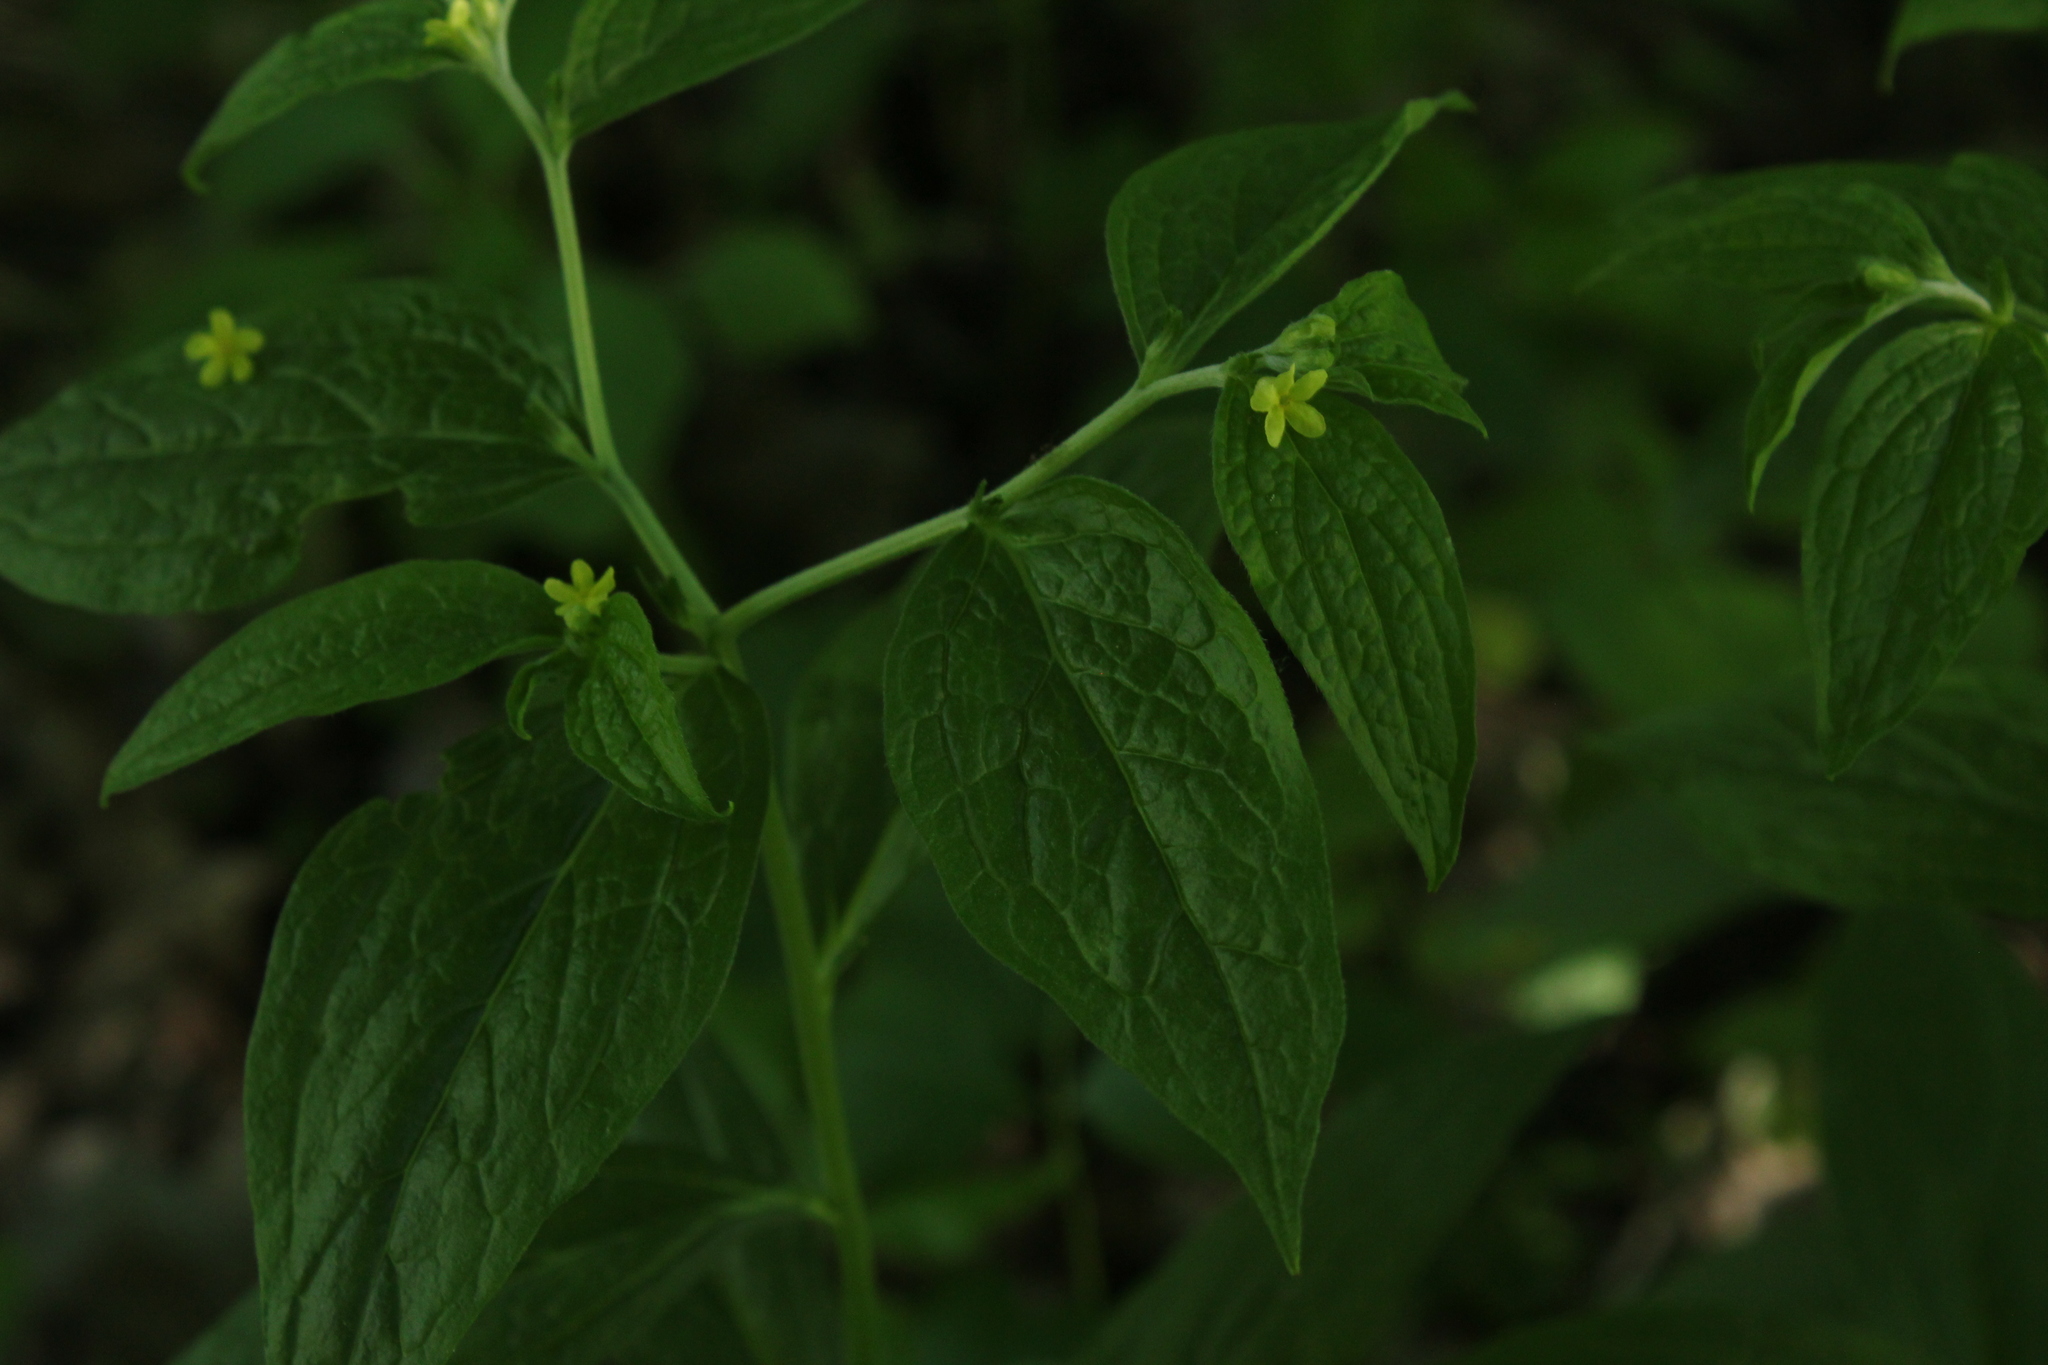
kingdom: Plantae
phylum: Tracheophyta
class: Magnoliopsida
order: Boraginales
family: Boraginaceae
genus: Lithospermum
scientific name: Lithospermum latifolium
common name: American gromwell
